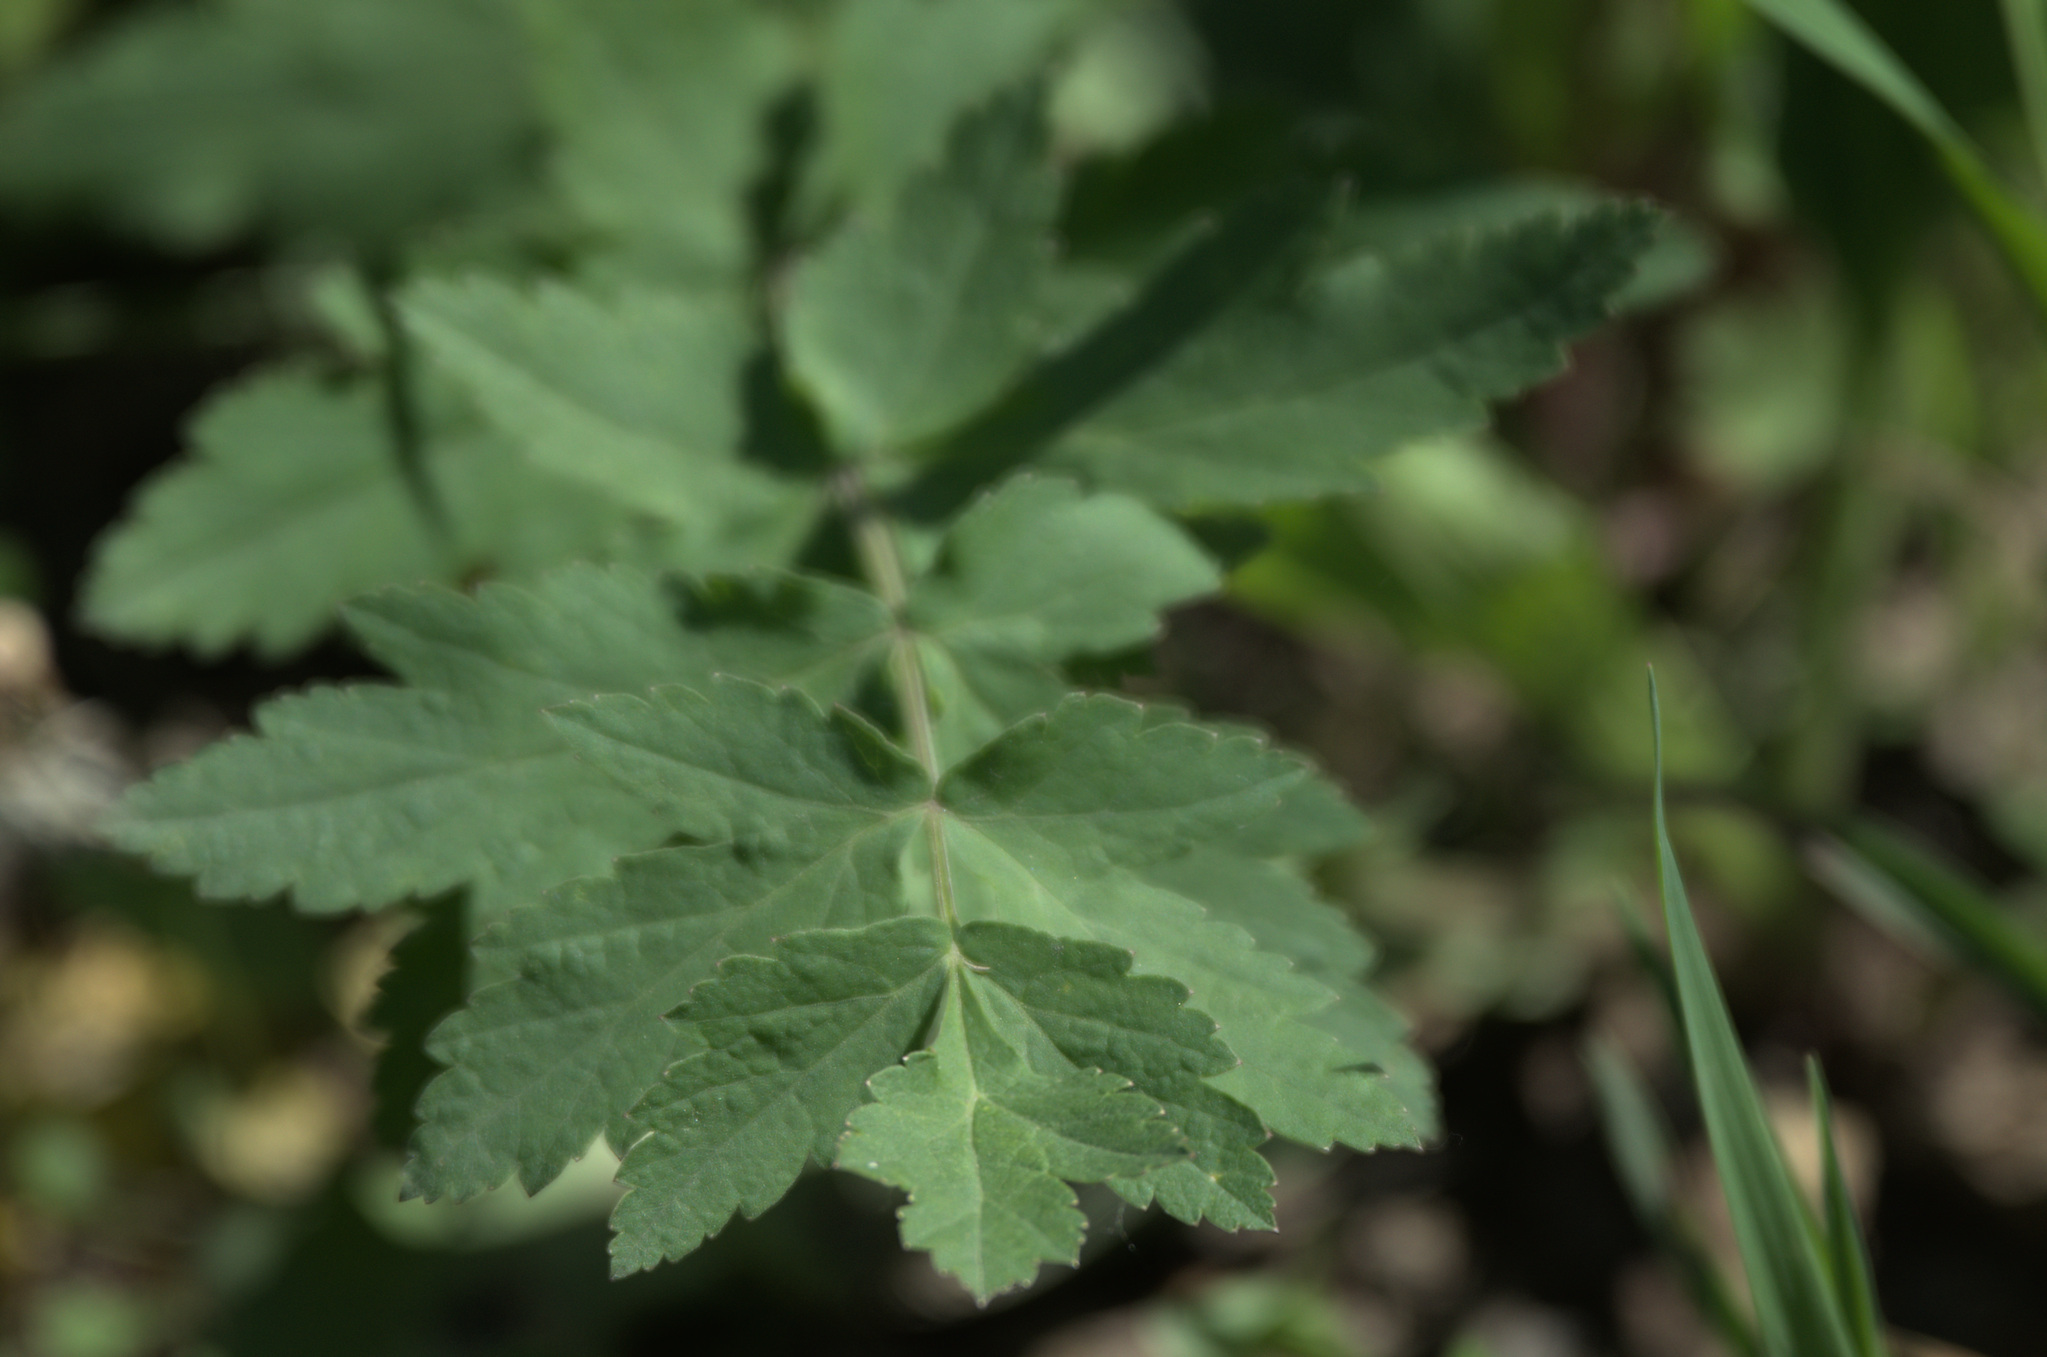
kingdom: Plantae
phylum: Tracheophyta
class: Magnoliopsida
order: Apiales
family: Apiaceae
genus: Pastinaca
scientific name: Pastinaca sativa
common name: Wild parsnip
